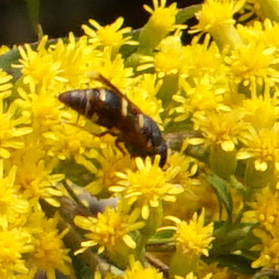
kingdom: Animalia
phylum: Arthropoda
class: Insecta
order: Hymenoptera
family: Eumenidae
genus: Euodynerus
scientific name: Euodynerus hidalgo
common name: Wasp
